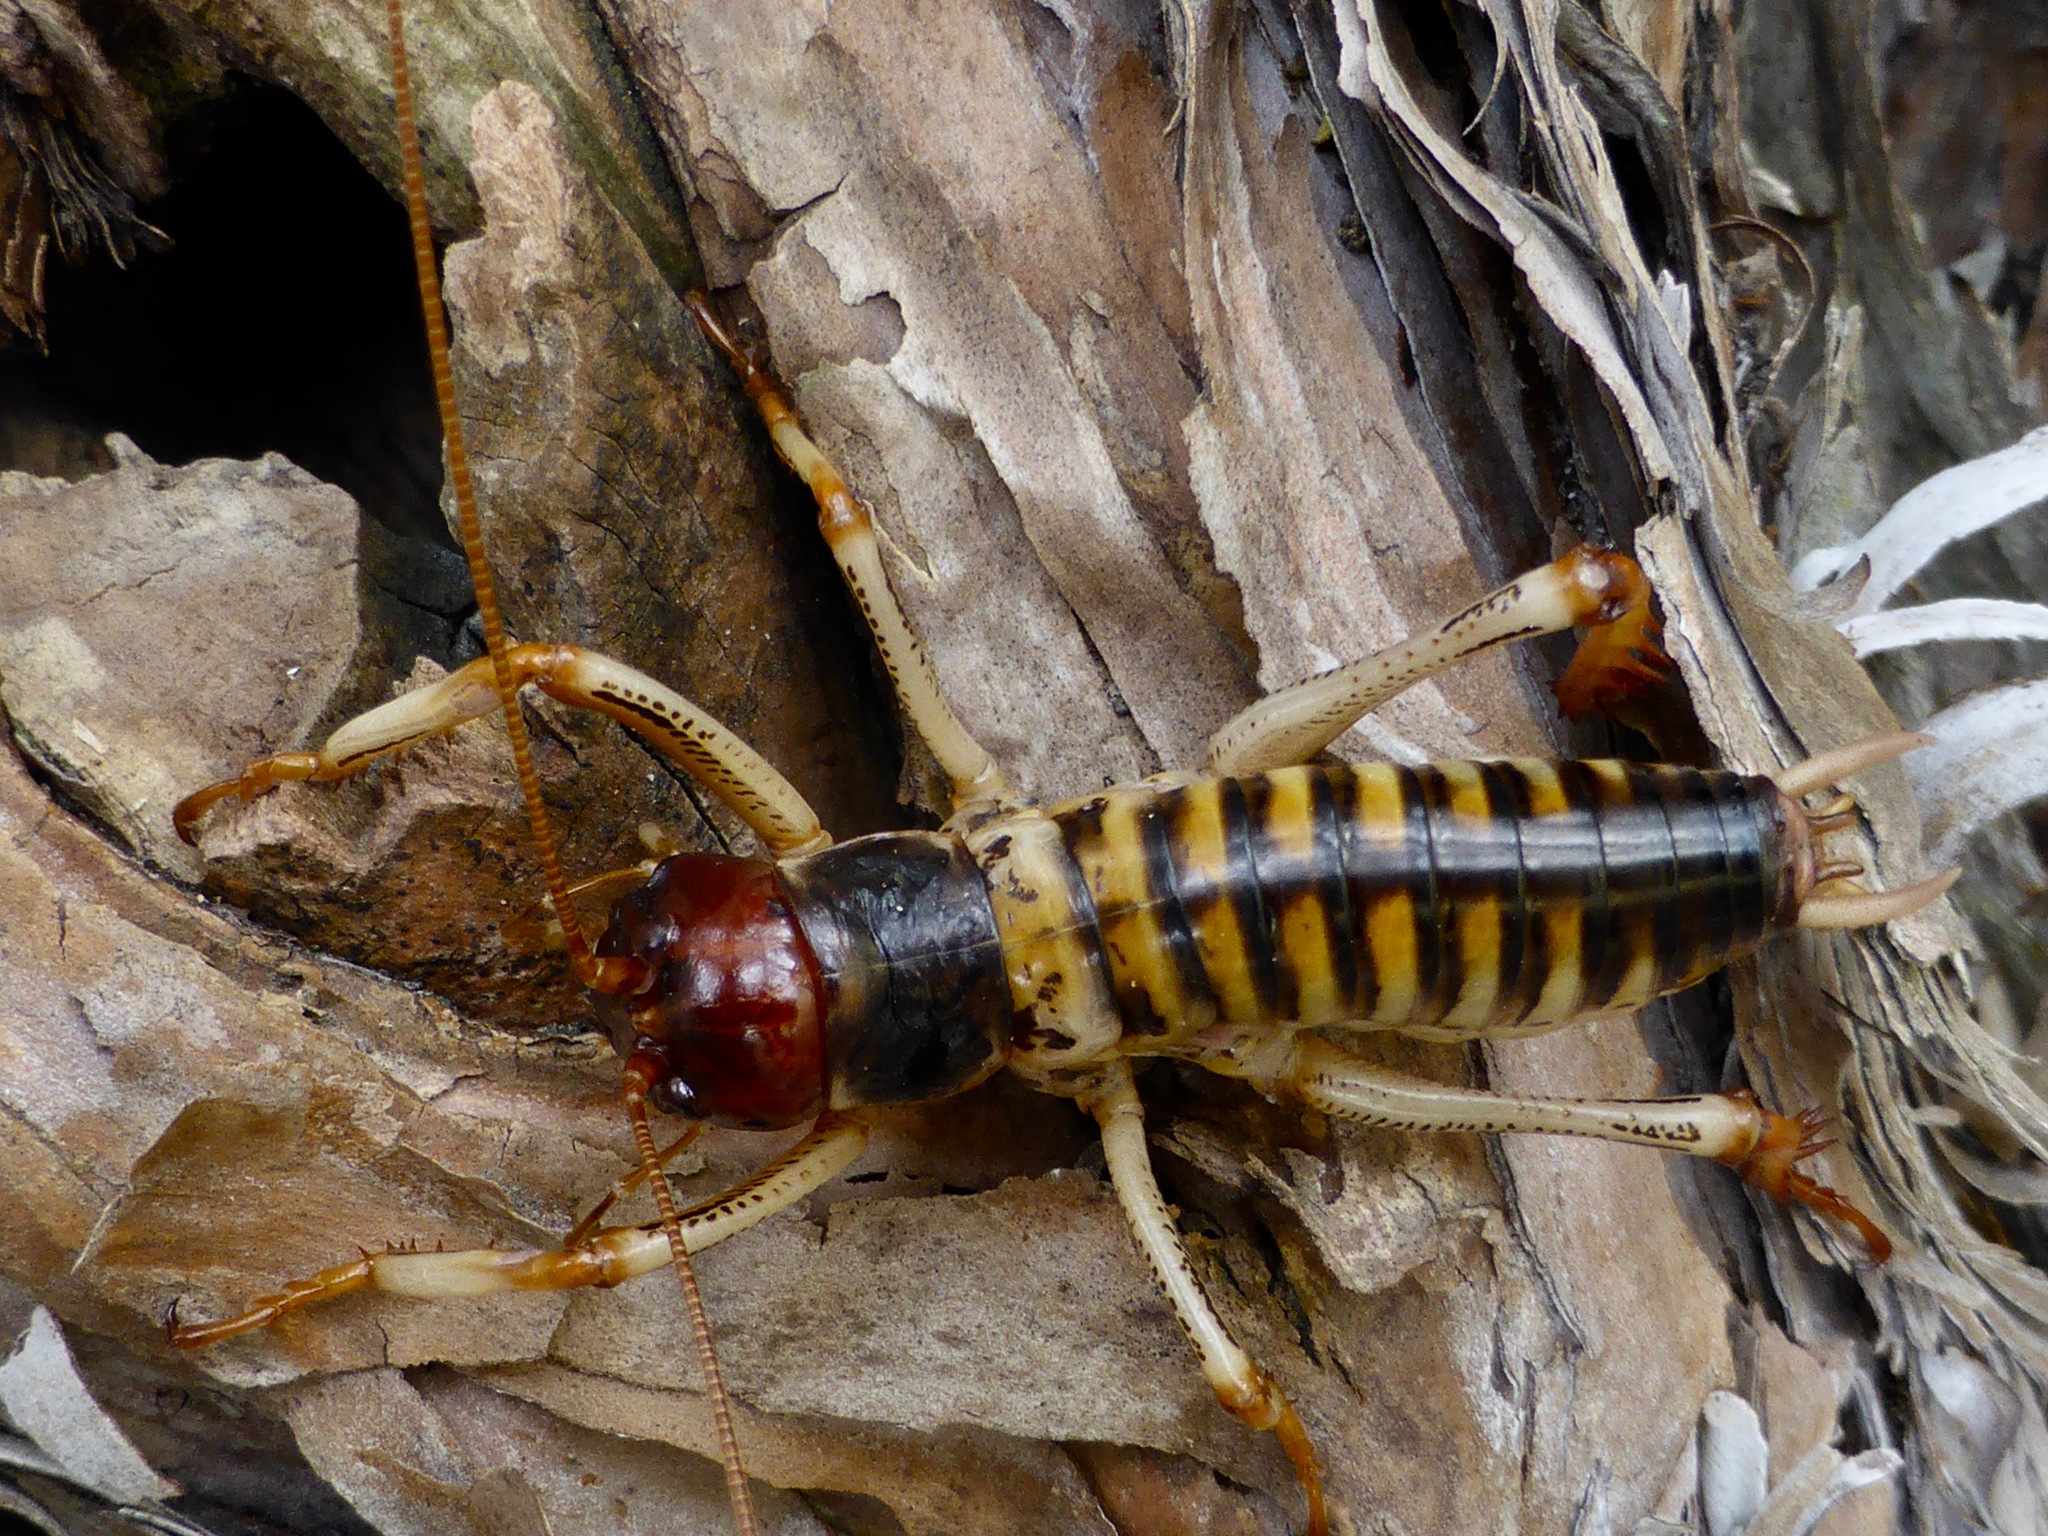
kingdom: Animalia
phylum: Arthropoda
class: Insecta
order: Orthoptera
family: Anostostomatidae
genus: Hemideina
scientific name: Hemideina crassidens
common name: Wellington tree weta
